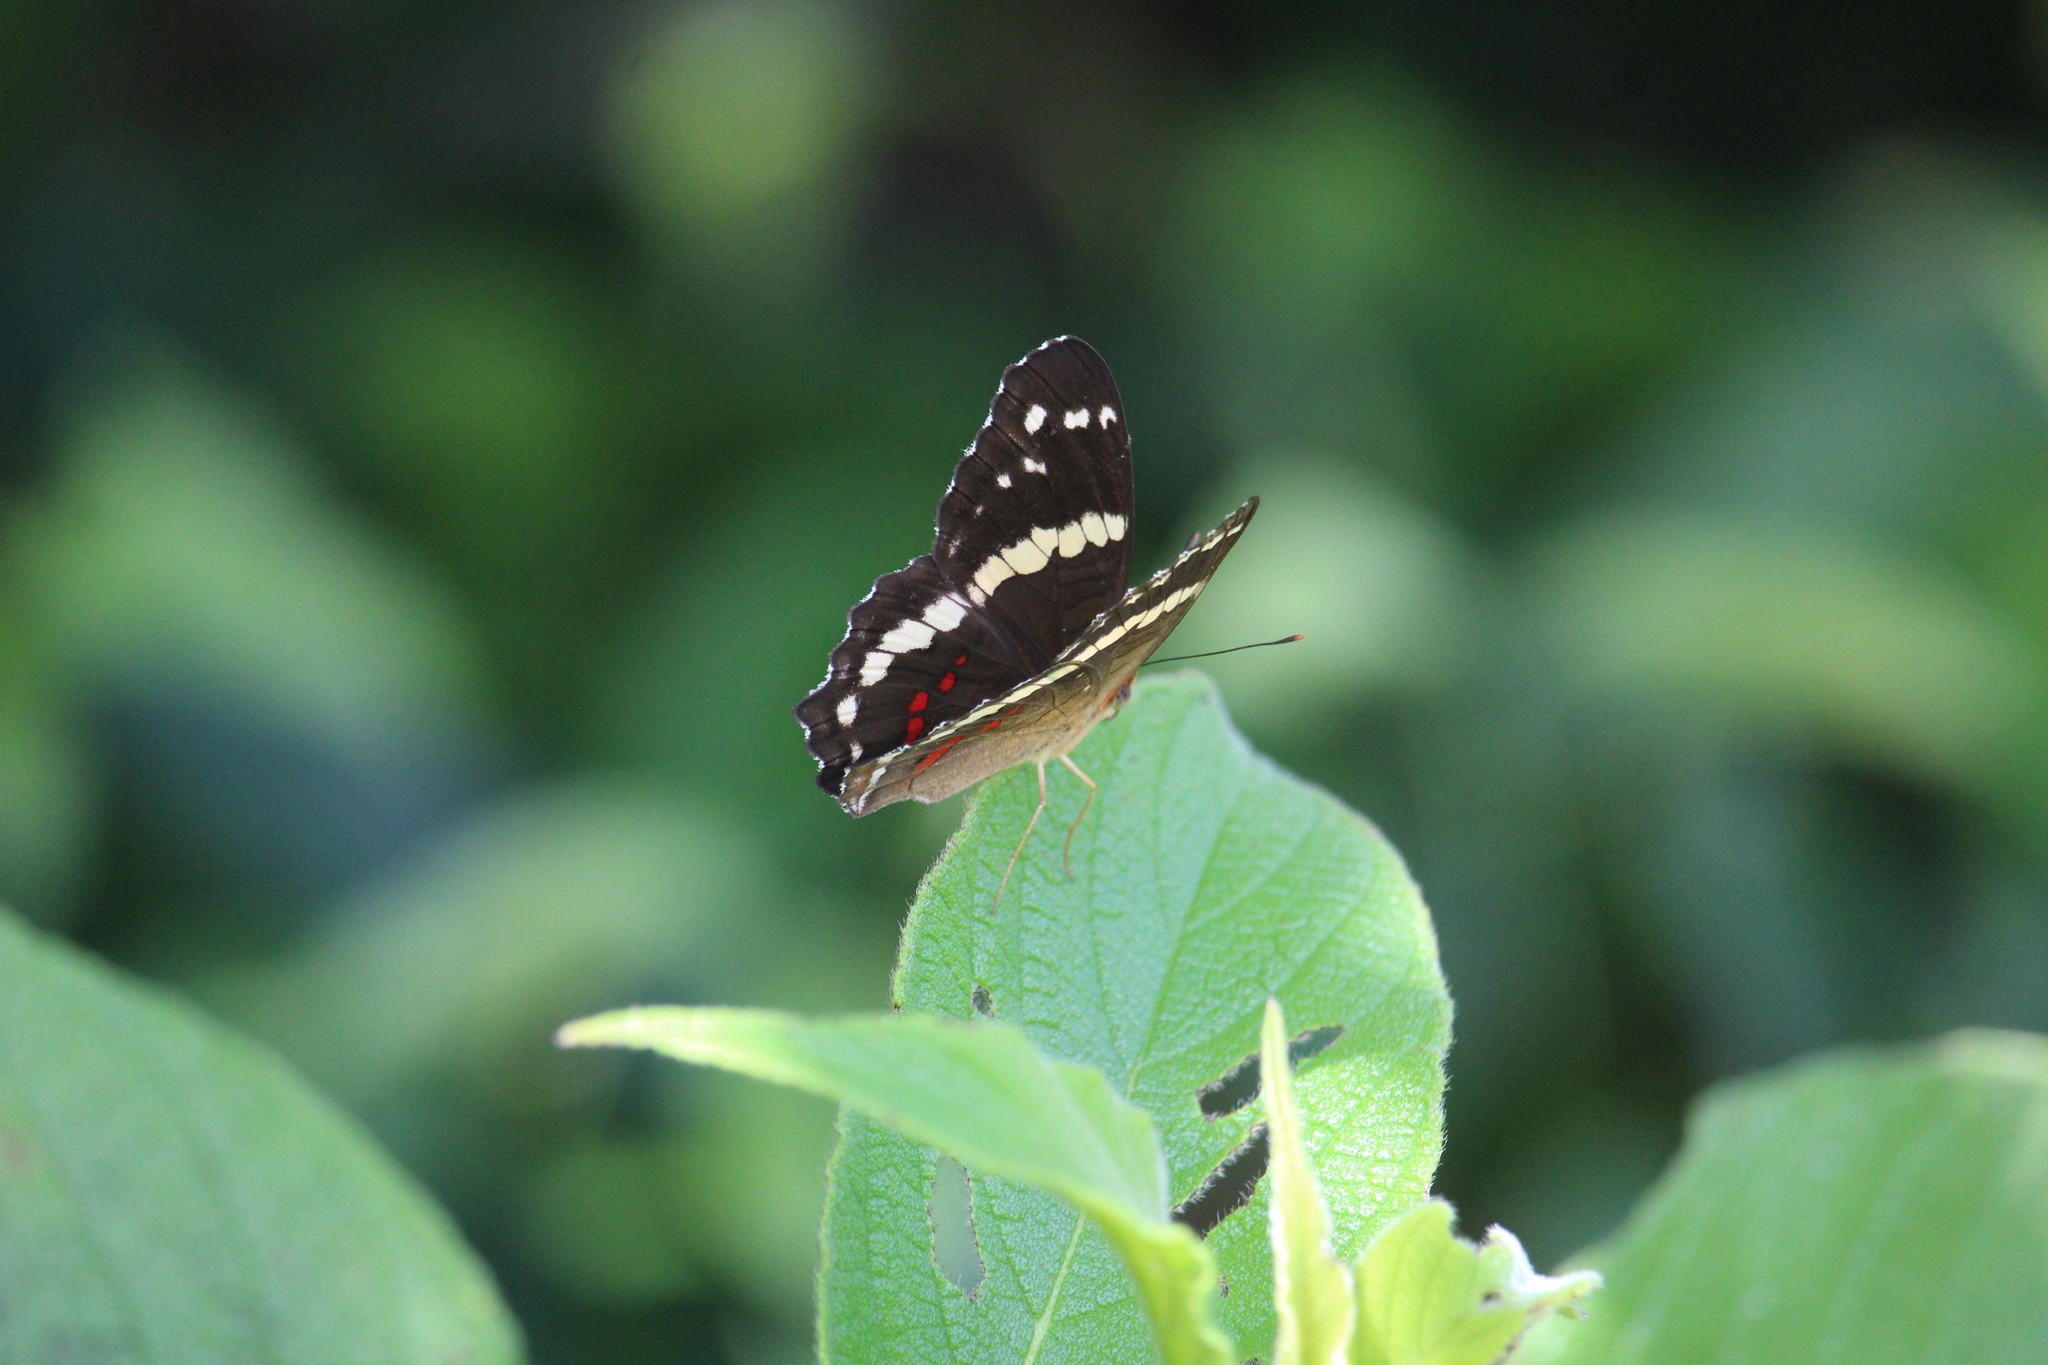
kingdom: Animalia
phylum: Arthropoda
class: Insecta
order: Lepidoptera
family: Nymphalidae
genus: Anartia
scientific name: Anartia fatima
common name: Banded peacock
